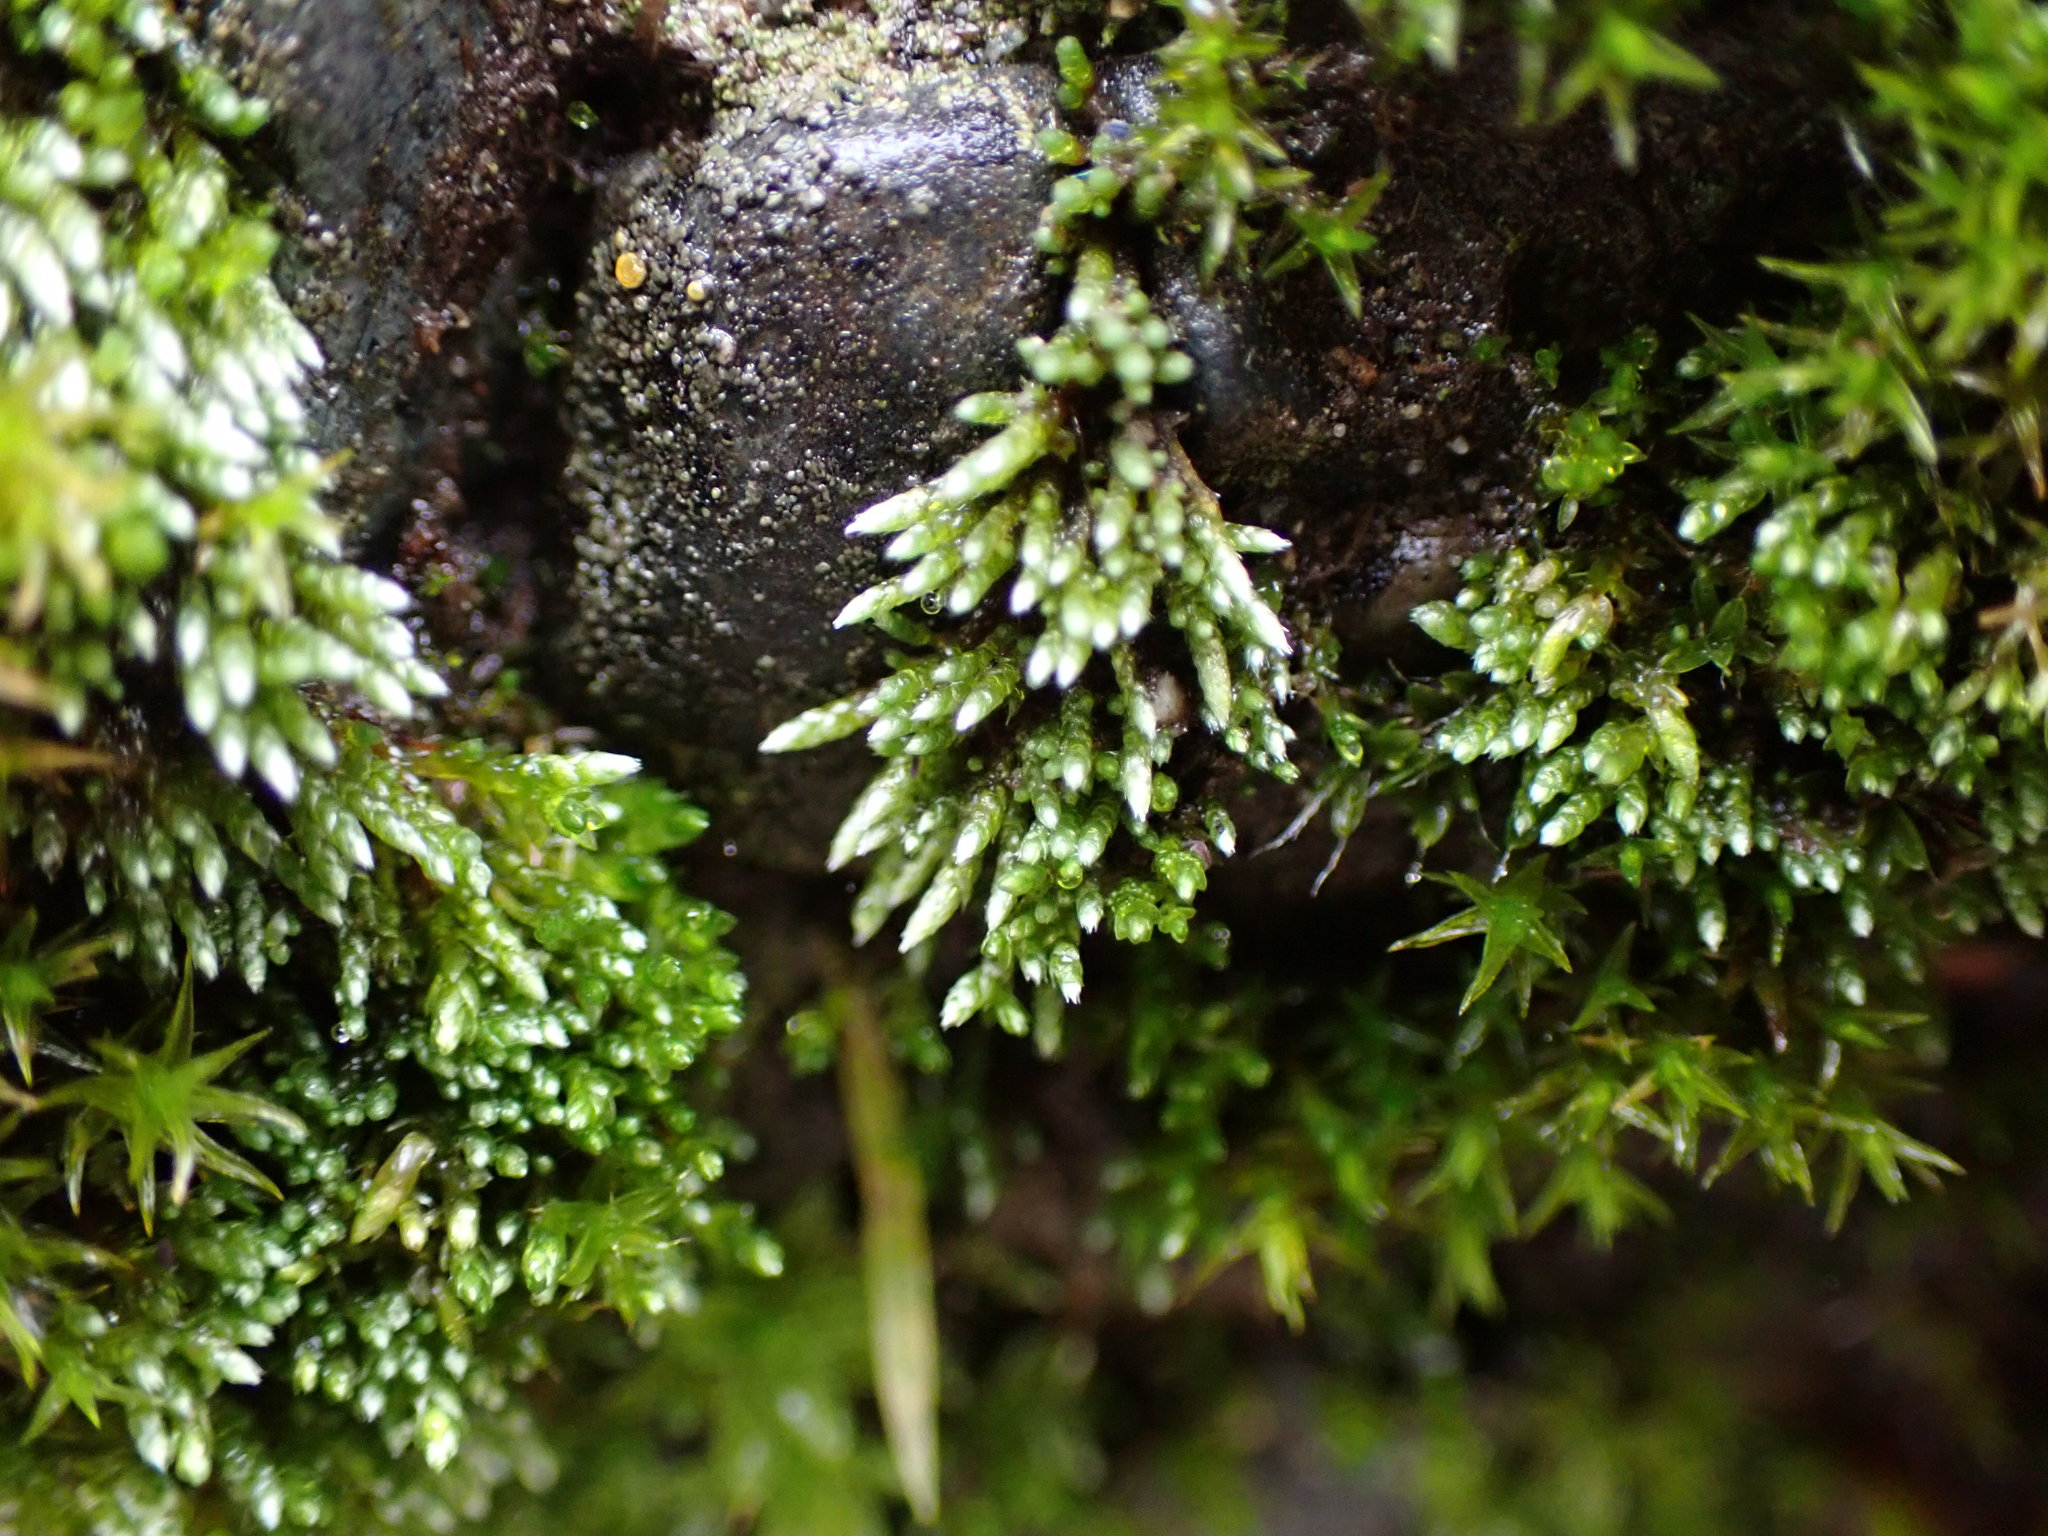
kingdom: Plantae
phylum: Bryophyta
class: Bryopsida
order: Bryales
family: Bryaceae
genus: Bryum
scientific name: Bryum argenteum
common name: Silver-moss
